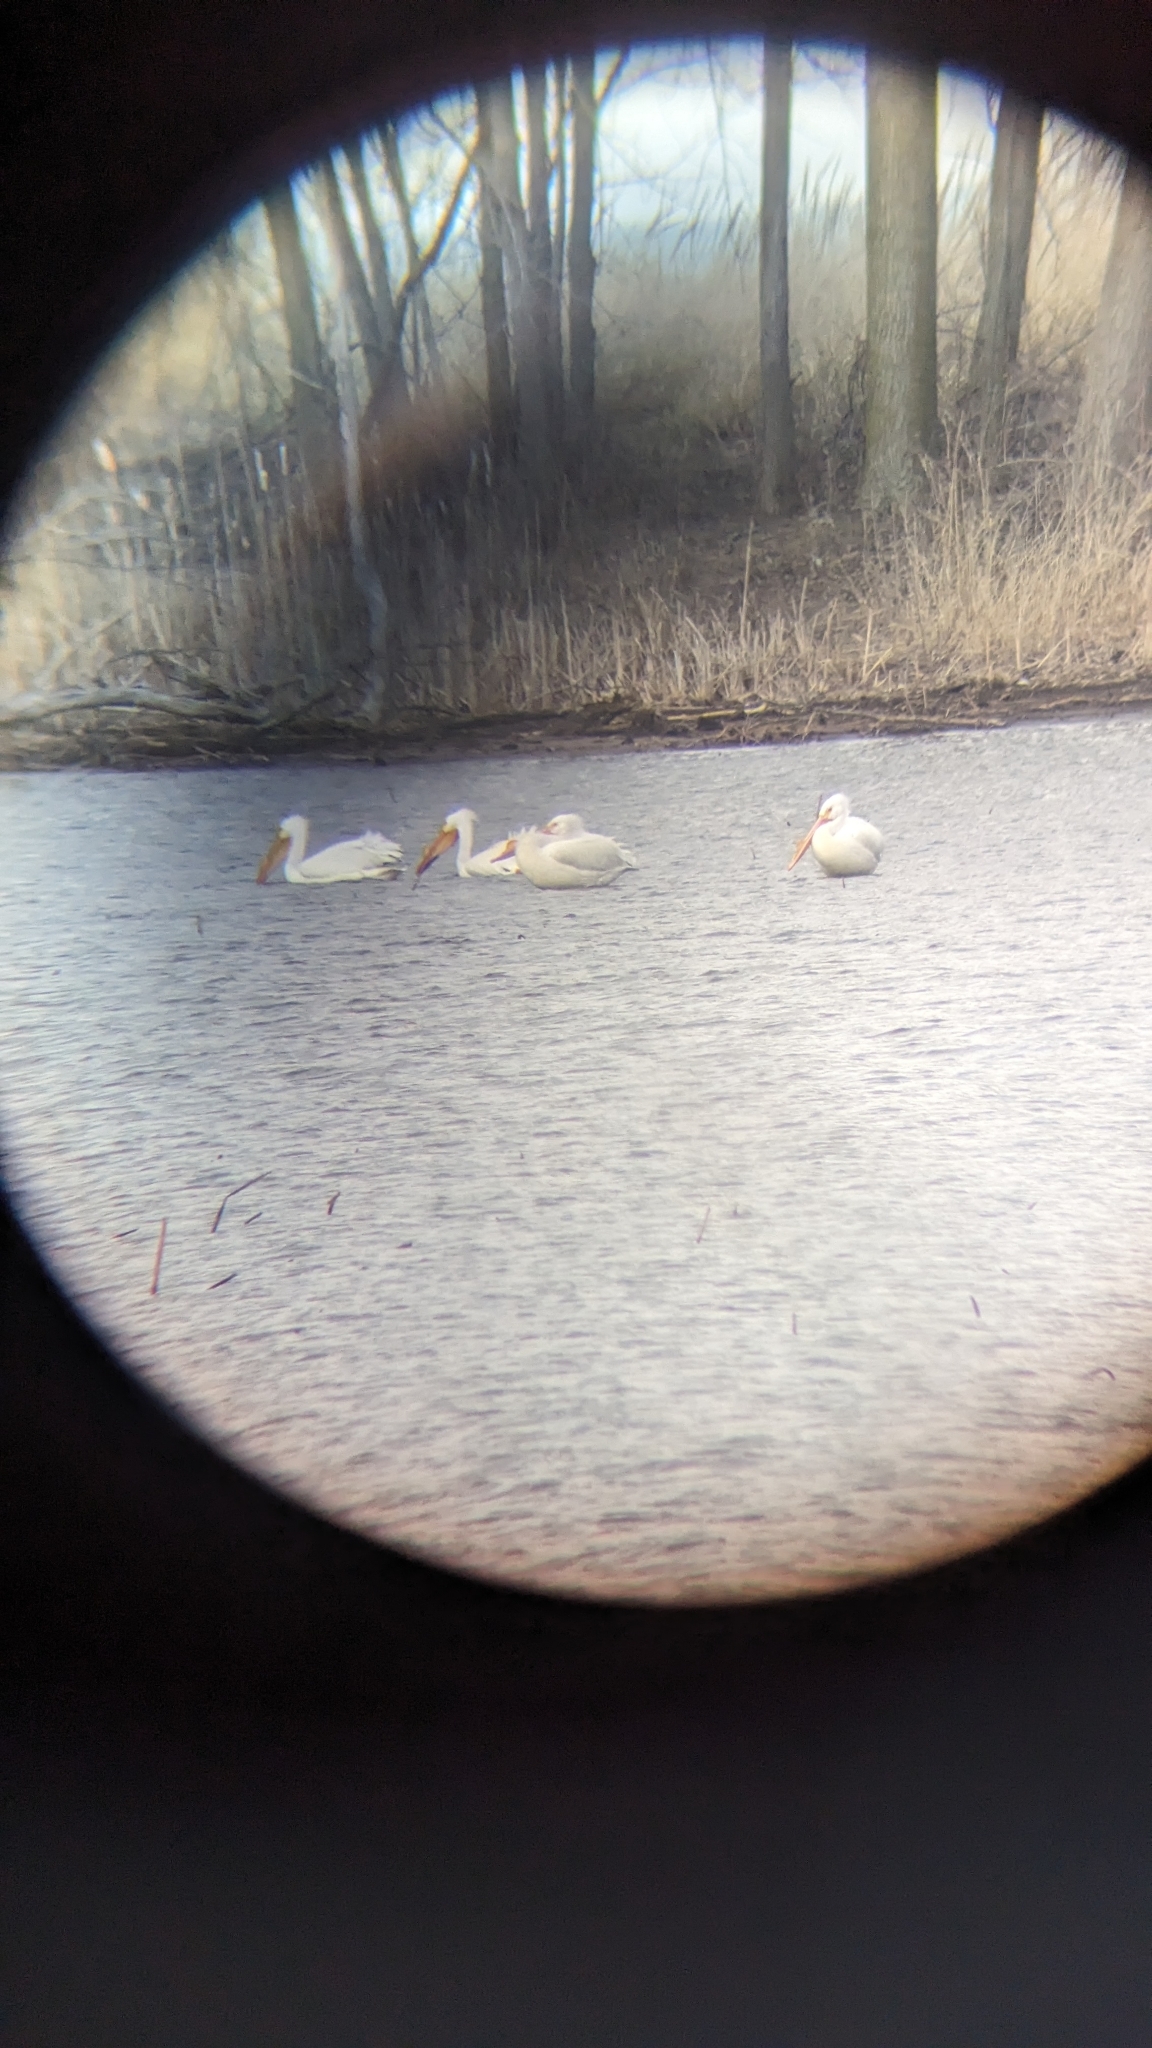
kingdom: Animalia
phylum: Chordata
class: Aves
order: Pelecaniformes
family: Pelecanidae
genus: Pelecanus
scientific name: Pelecanus erythrorhynchos
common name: American white pelican
